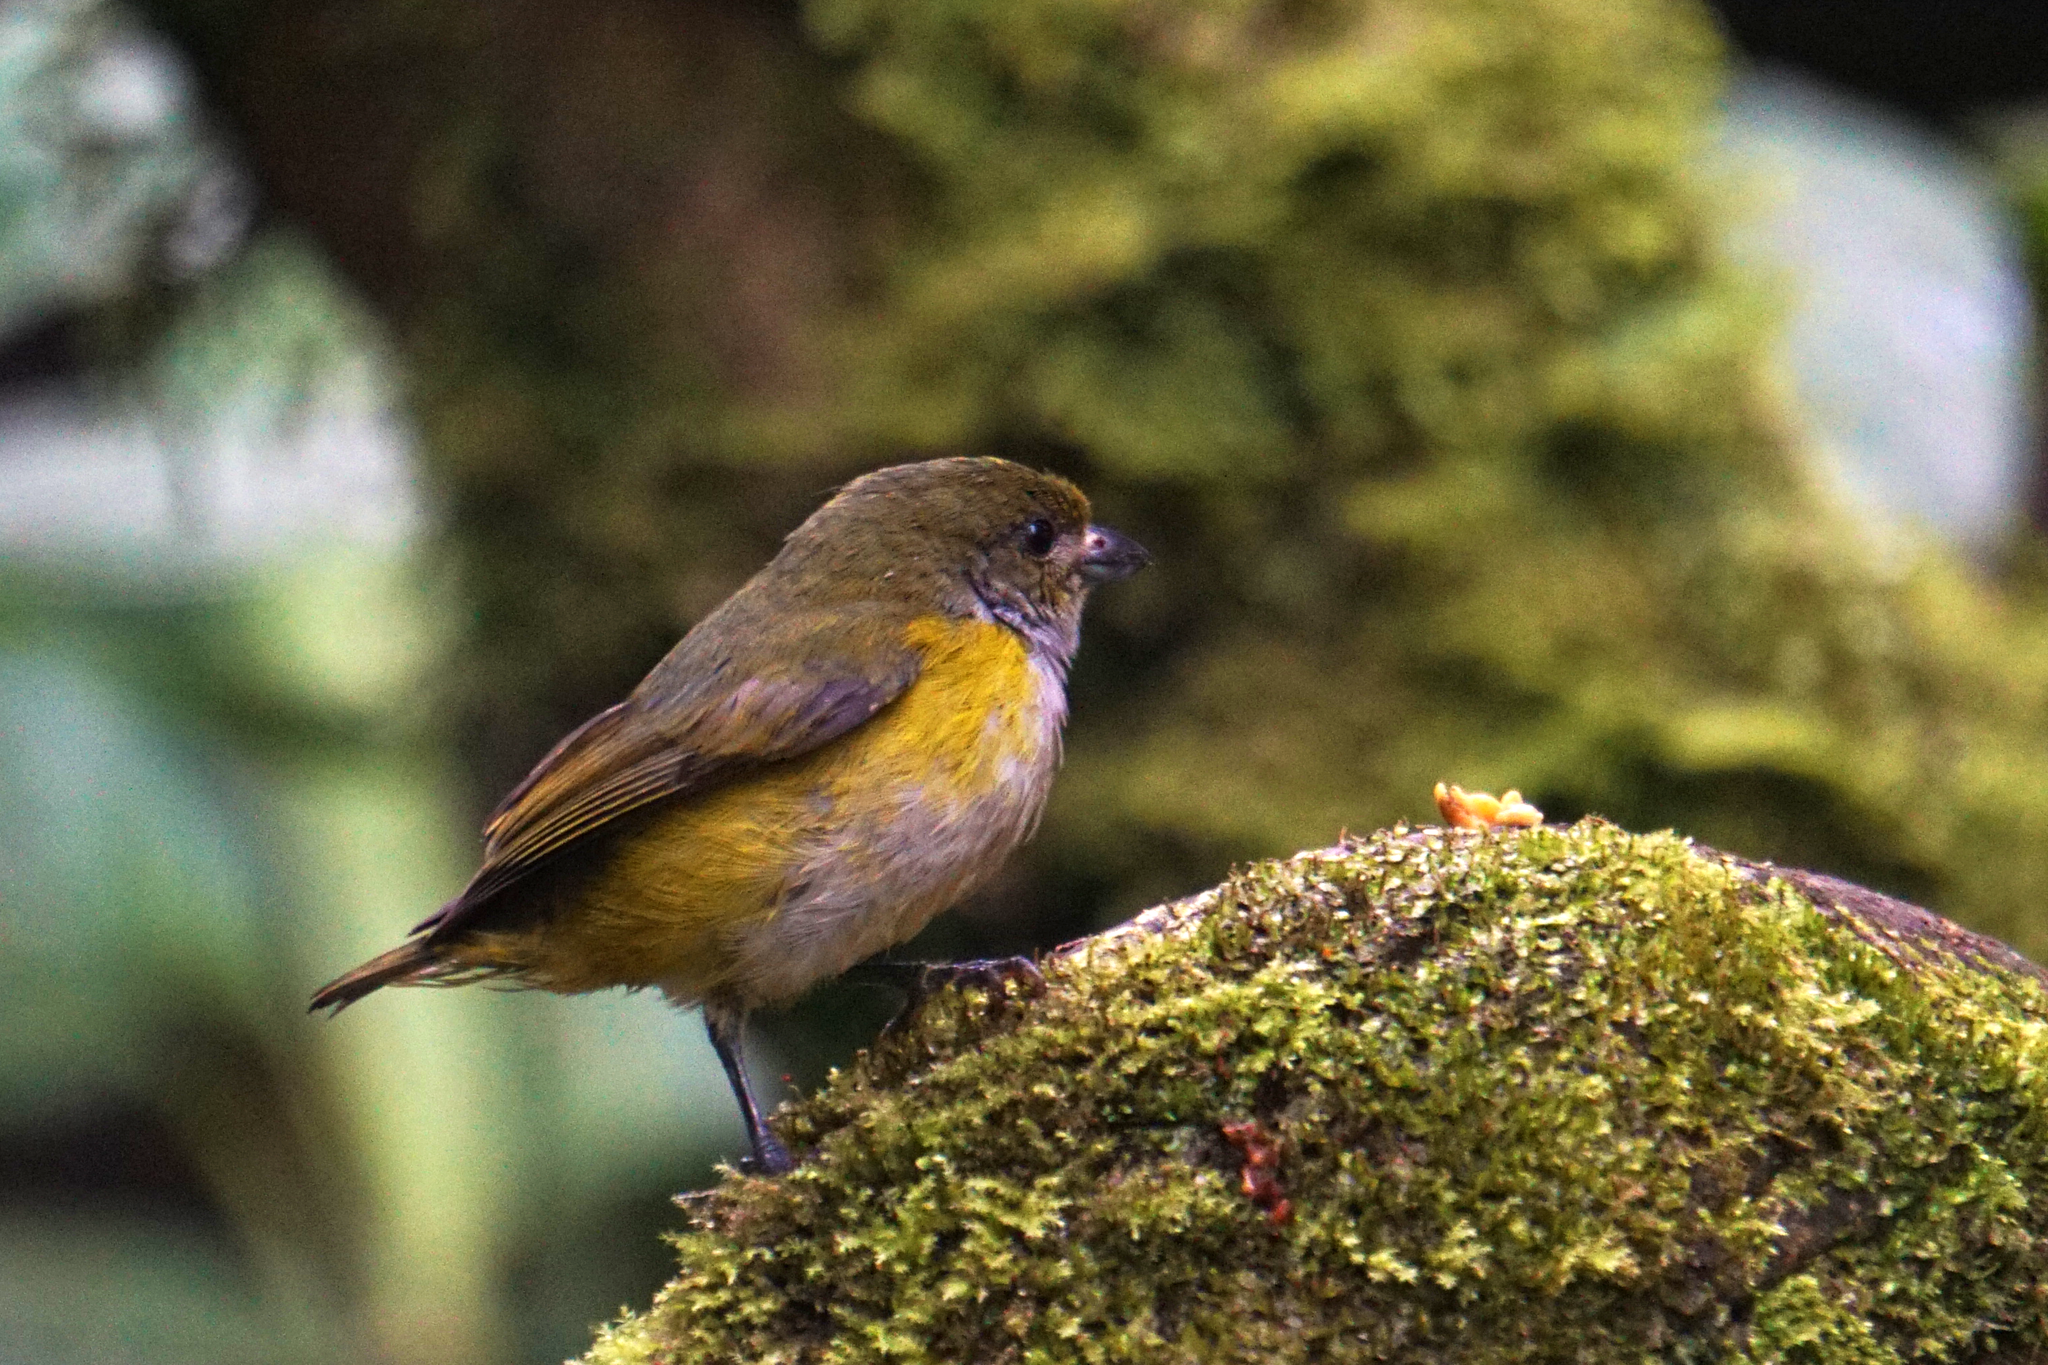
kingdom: Animalia
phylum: Chordata
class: Aves
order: Passeriformes
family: Fringillidae
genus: Euphonia
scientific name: Euphonia gouldi
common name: Olive-backed euphonia
